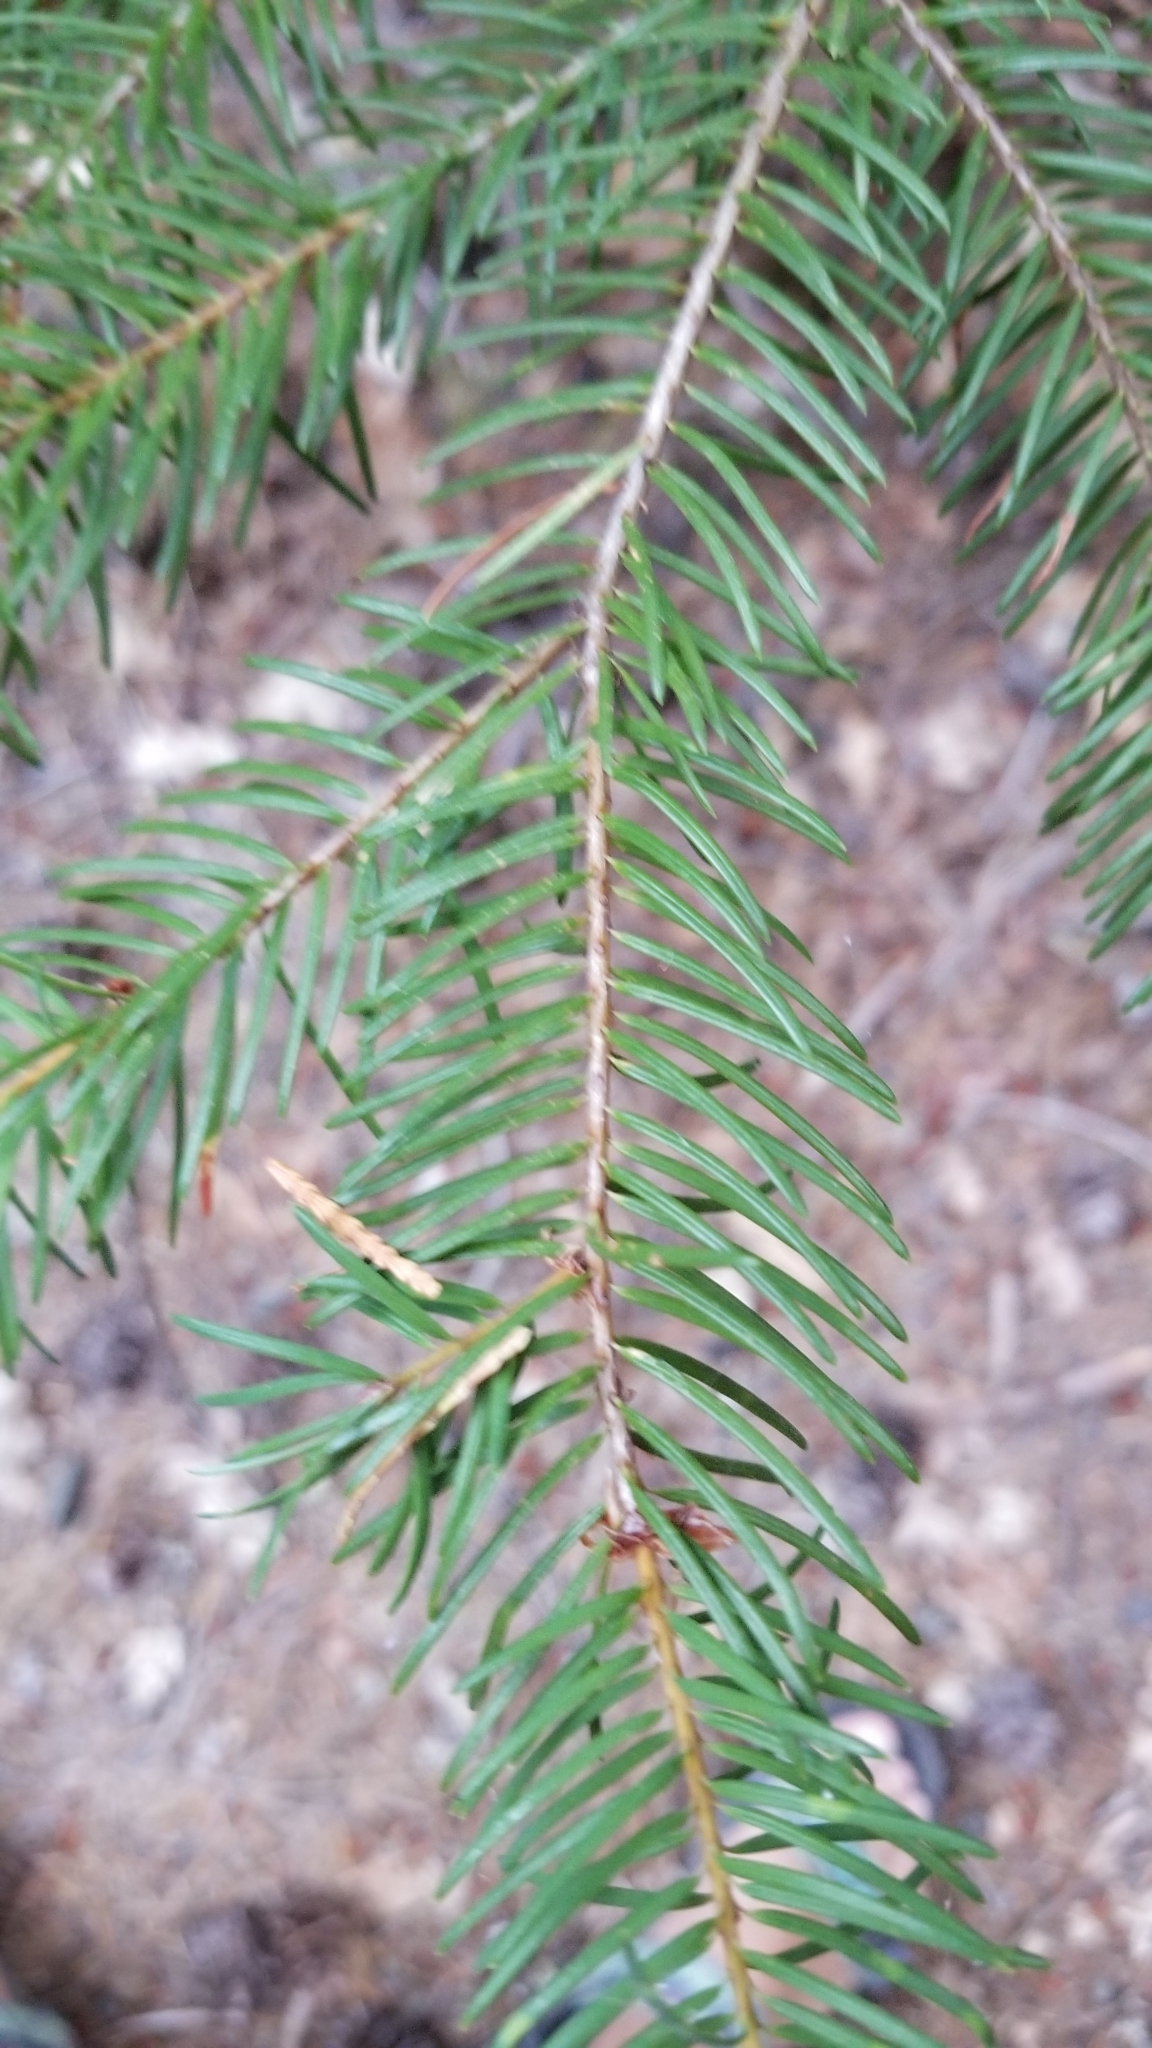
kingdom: Plantae
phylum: Tracheophyta
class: Pinopsida
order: Pinales
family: Pinaceae
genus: Pseudotsuga
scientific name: Pseudotsuga menziesii
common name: Douglas fir
